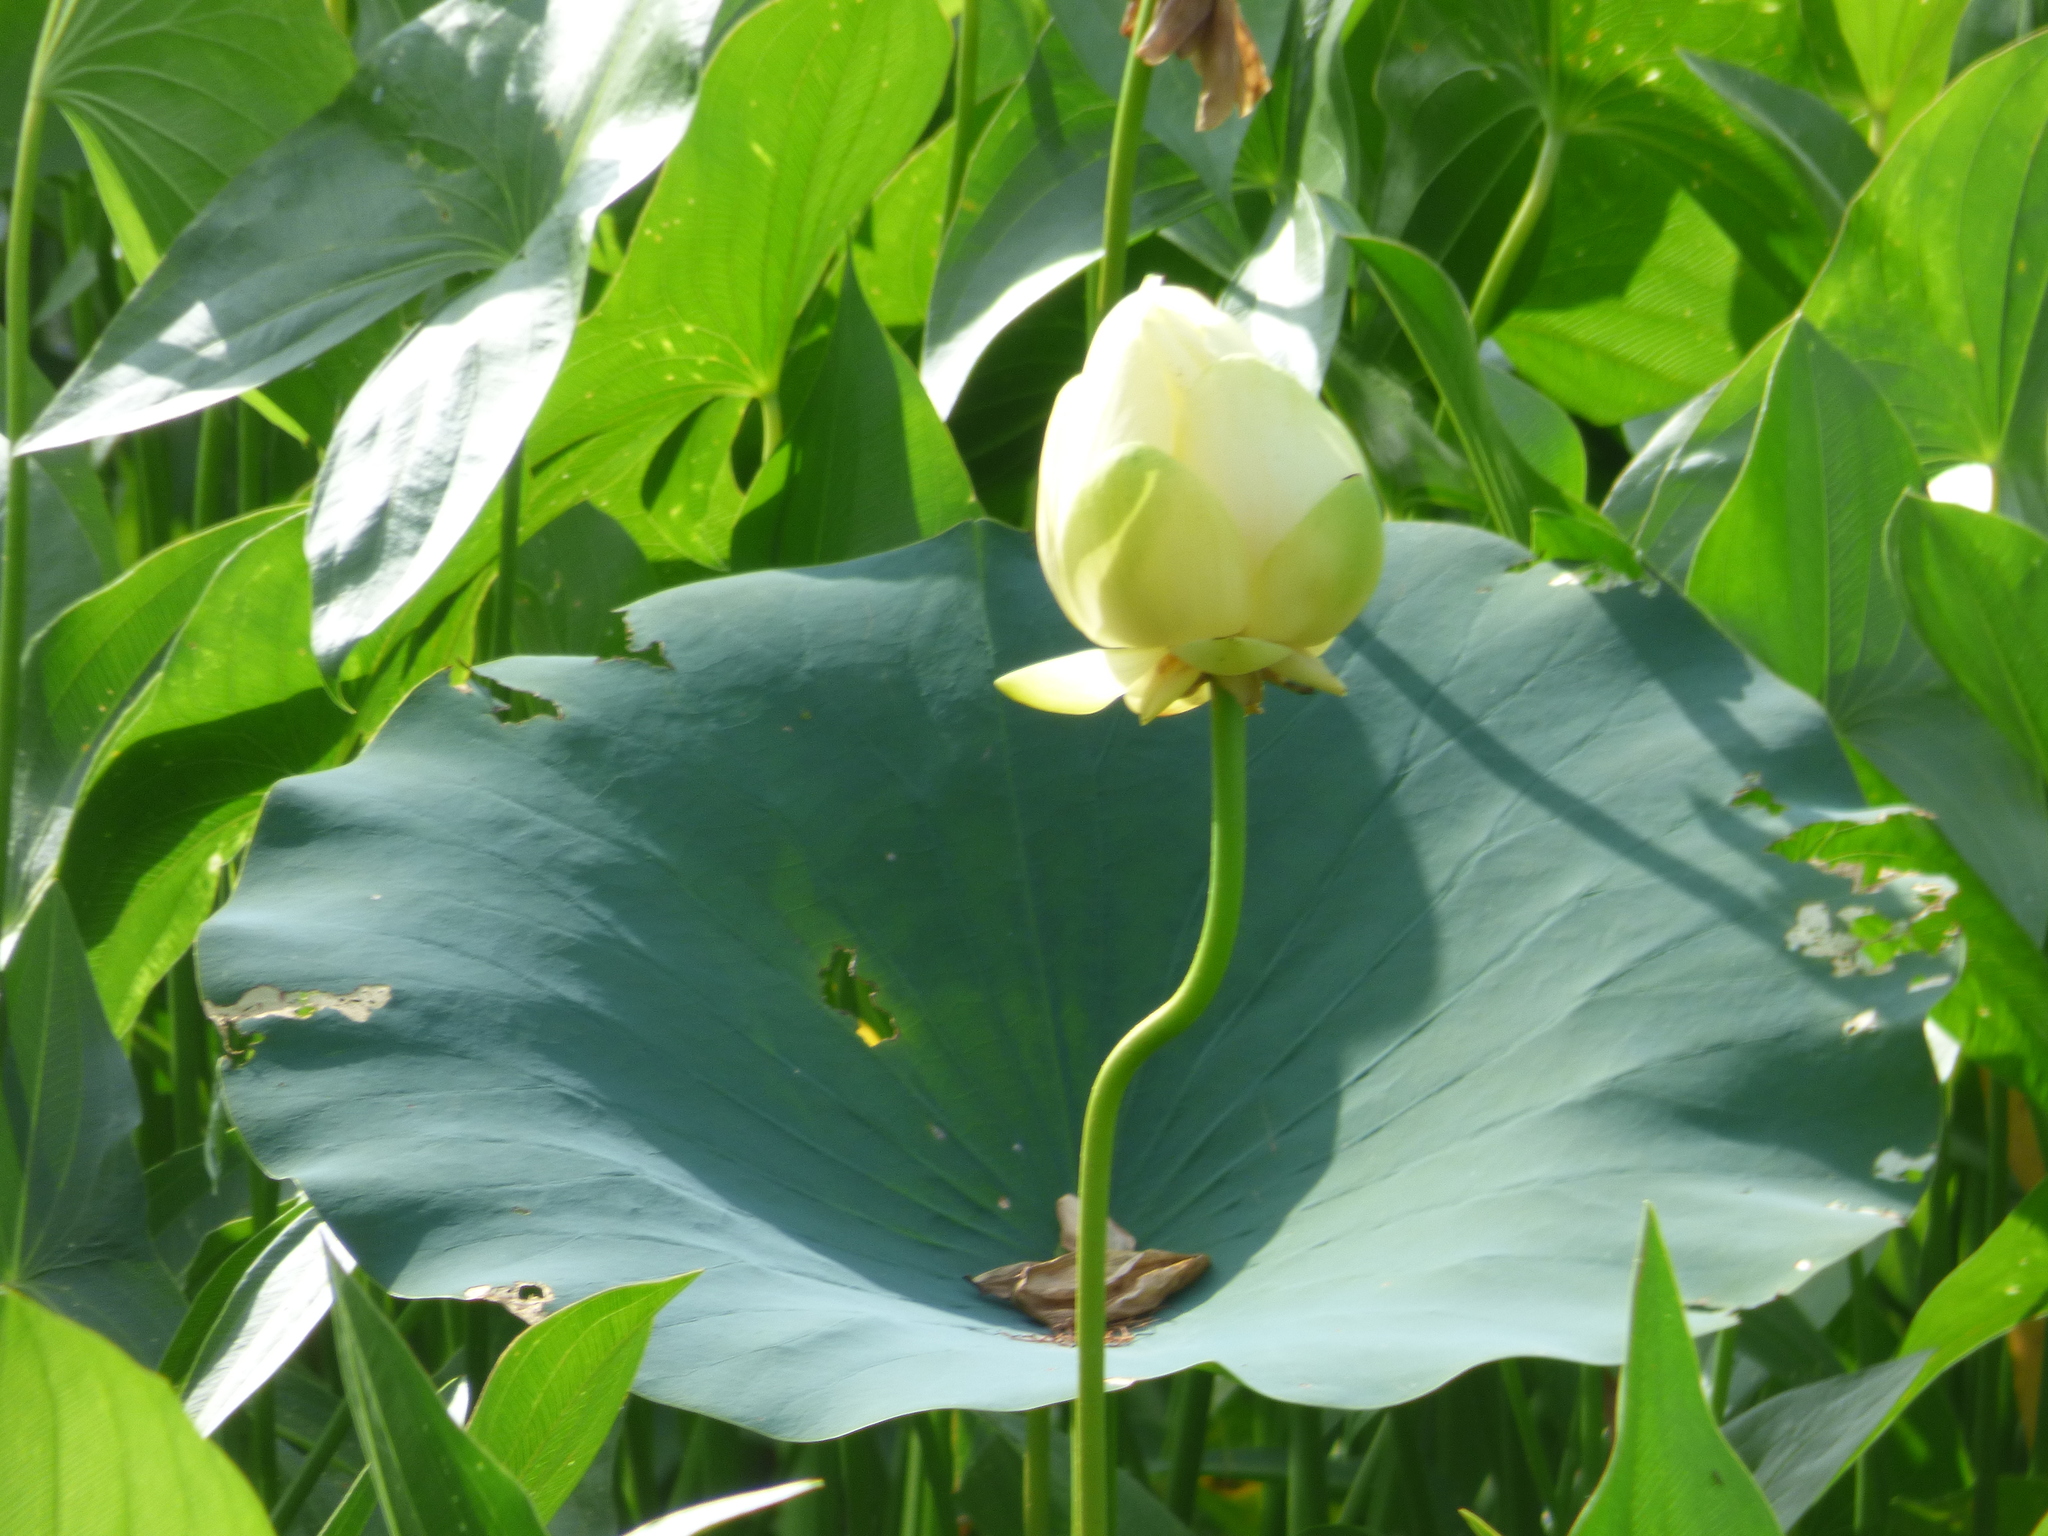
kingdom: Plantae
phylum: Tracheophyta
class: Magnoliopsida
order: Proteales
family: Nelumbonaceae
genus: Nelumbo
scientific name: Nelumbo lutea
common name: American lotus
